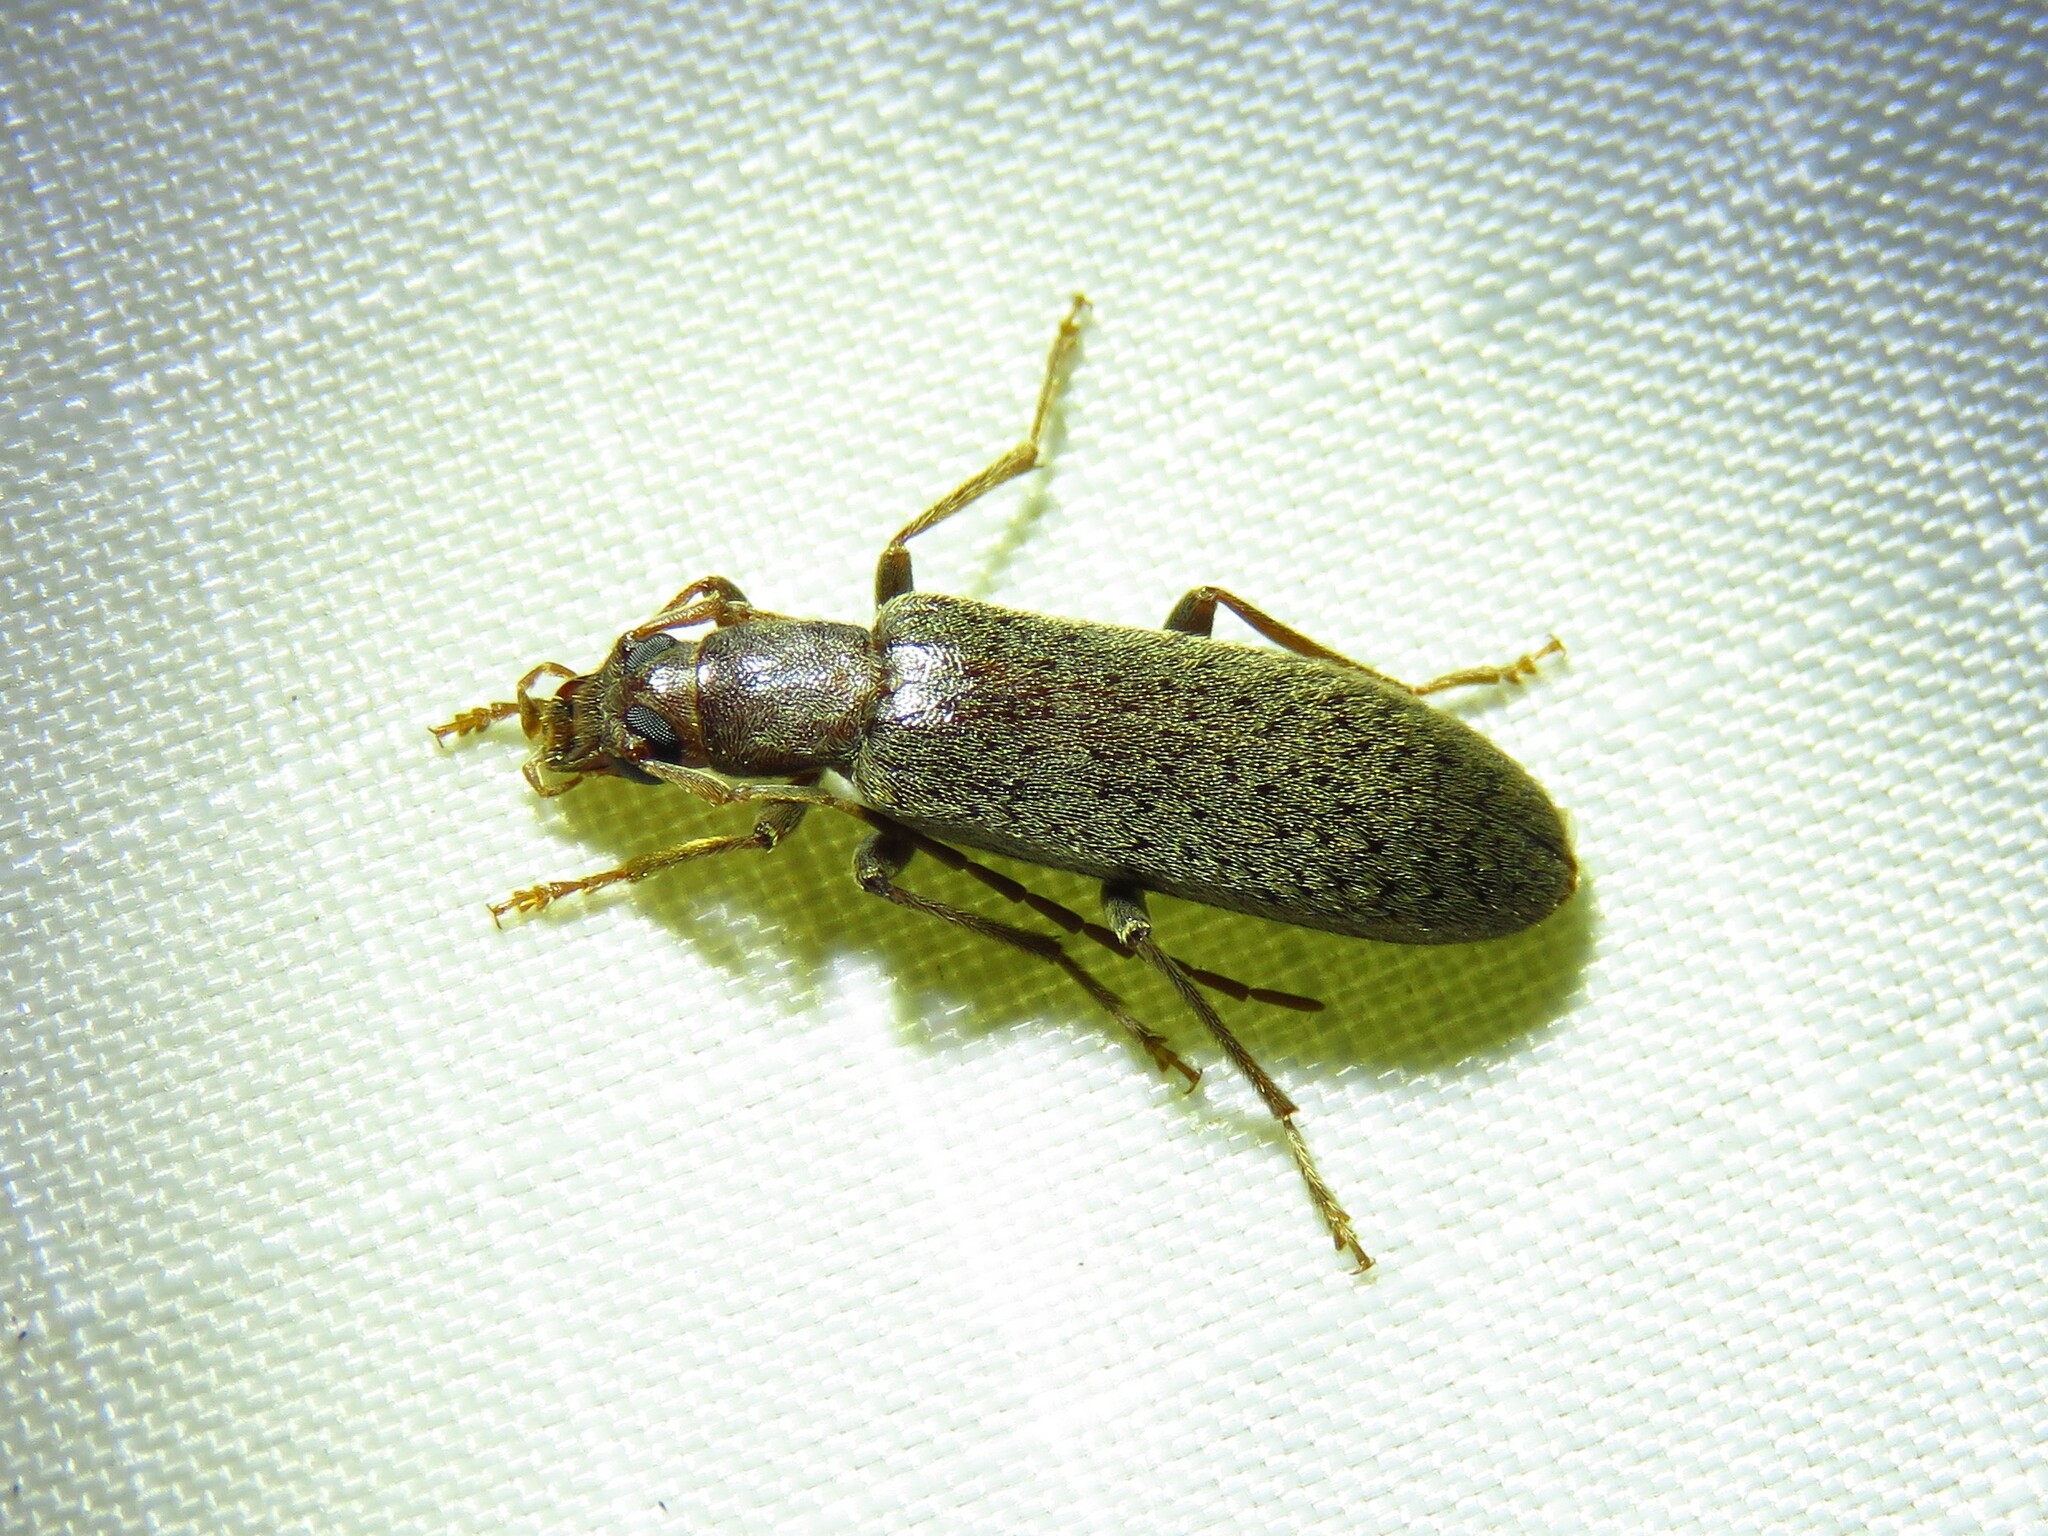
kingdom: Animalia
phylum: Arthropoda
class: Insecta
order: Coleoptera
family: Oedemeridae
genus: Sparedrus
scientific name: Sparedrus aspersus
